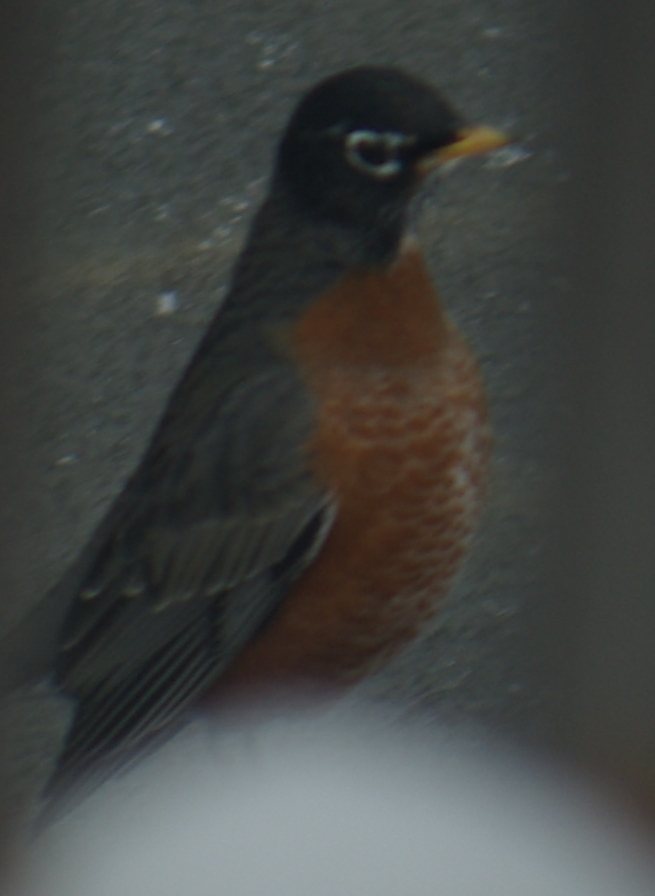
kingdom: Animalia
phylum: Chordata
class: Aves
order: Passeriformes
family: Turdidae
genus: Turdus
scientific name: Turdus migratorius
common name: American robin
